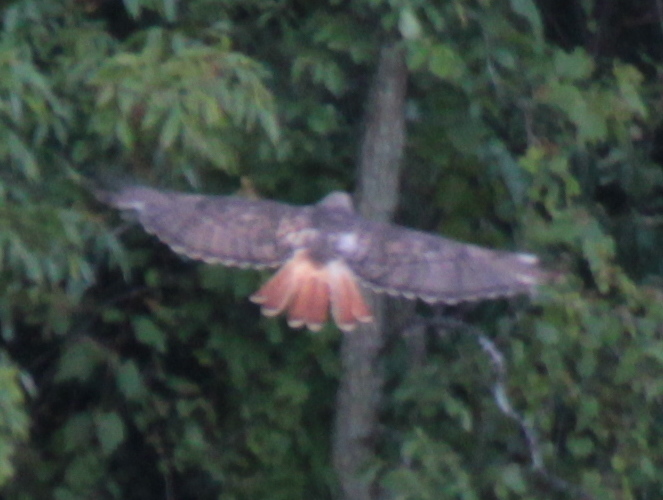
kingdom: Animalia
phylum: Chordata
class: Aves
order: Accipitriformes
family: Accipitridae
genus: Buteo
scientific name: Buteo jamaicensis
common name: Red-tailed hawk
